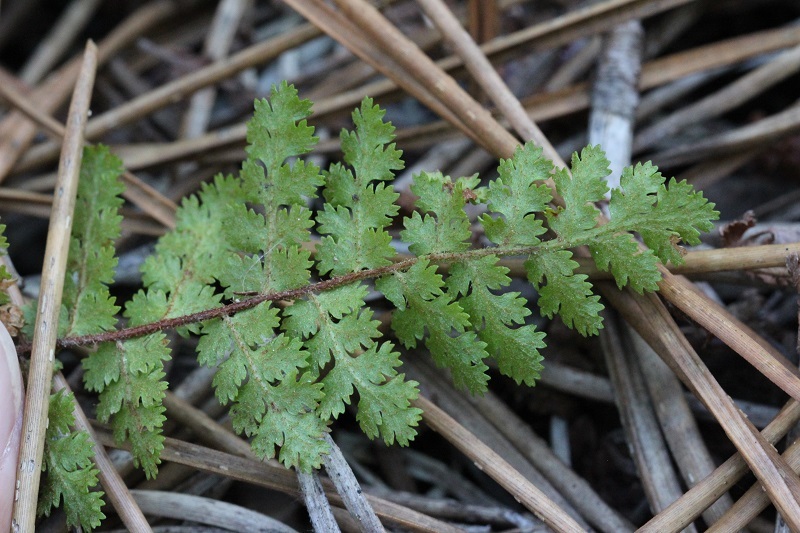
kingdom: Plantae
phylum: Tracheophyta
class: Polypodiopsida
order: Schizaeales
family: Anemiaceae
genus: Anemia
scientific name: Anemia caffrorum
